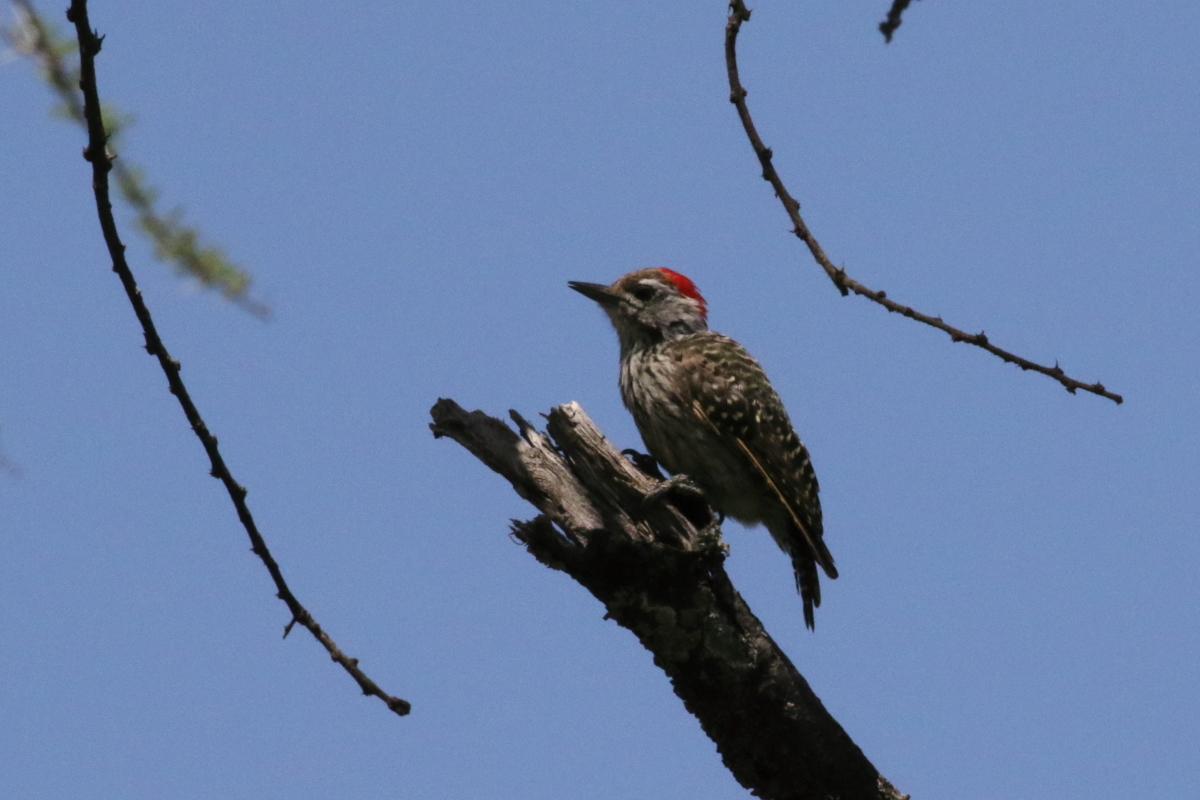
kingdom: Animalia
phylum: Chordata
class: Aves
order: Piciformes
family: Picidae
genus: Dendropicos
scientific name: Dendropicos fuscescens
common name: Cardinal woodpecker
